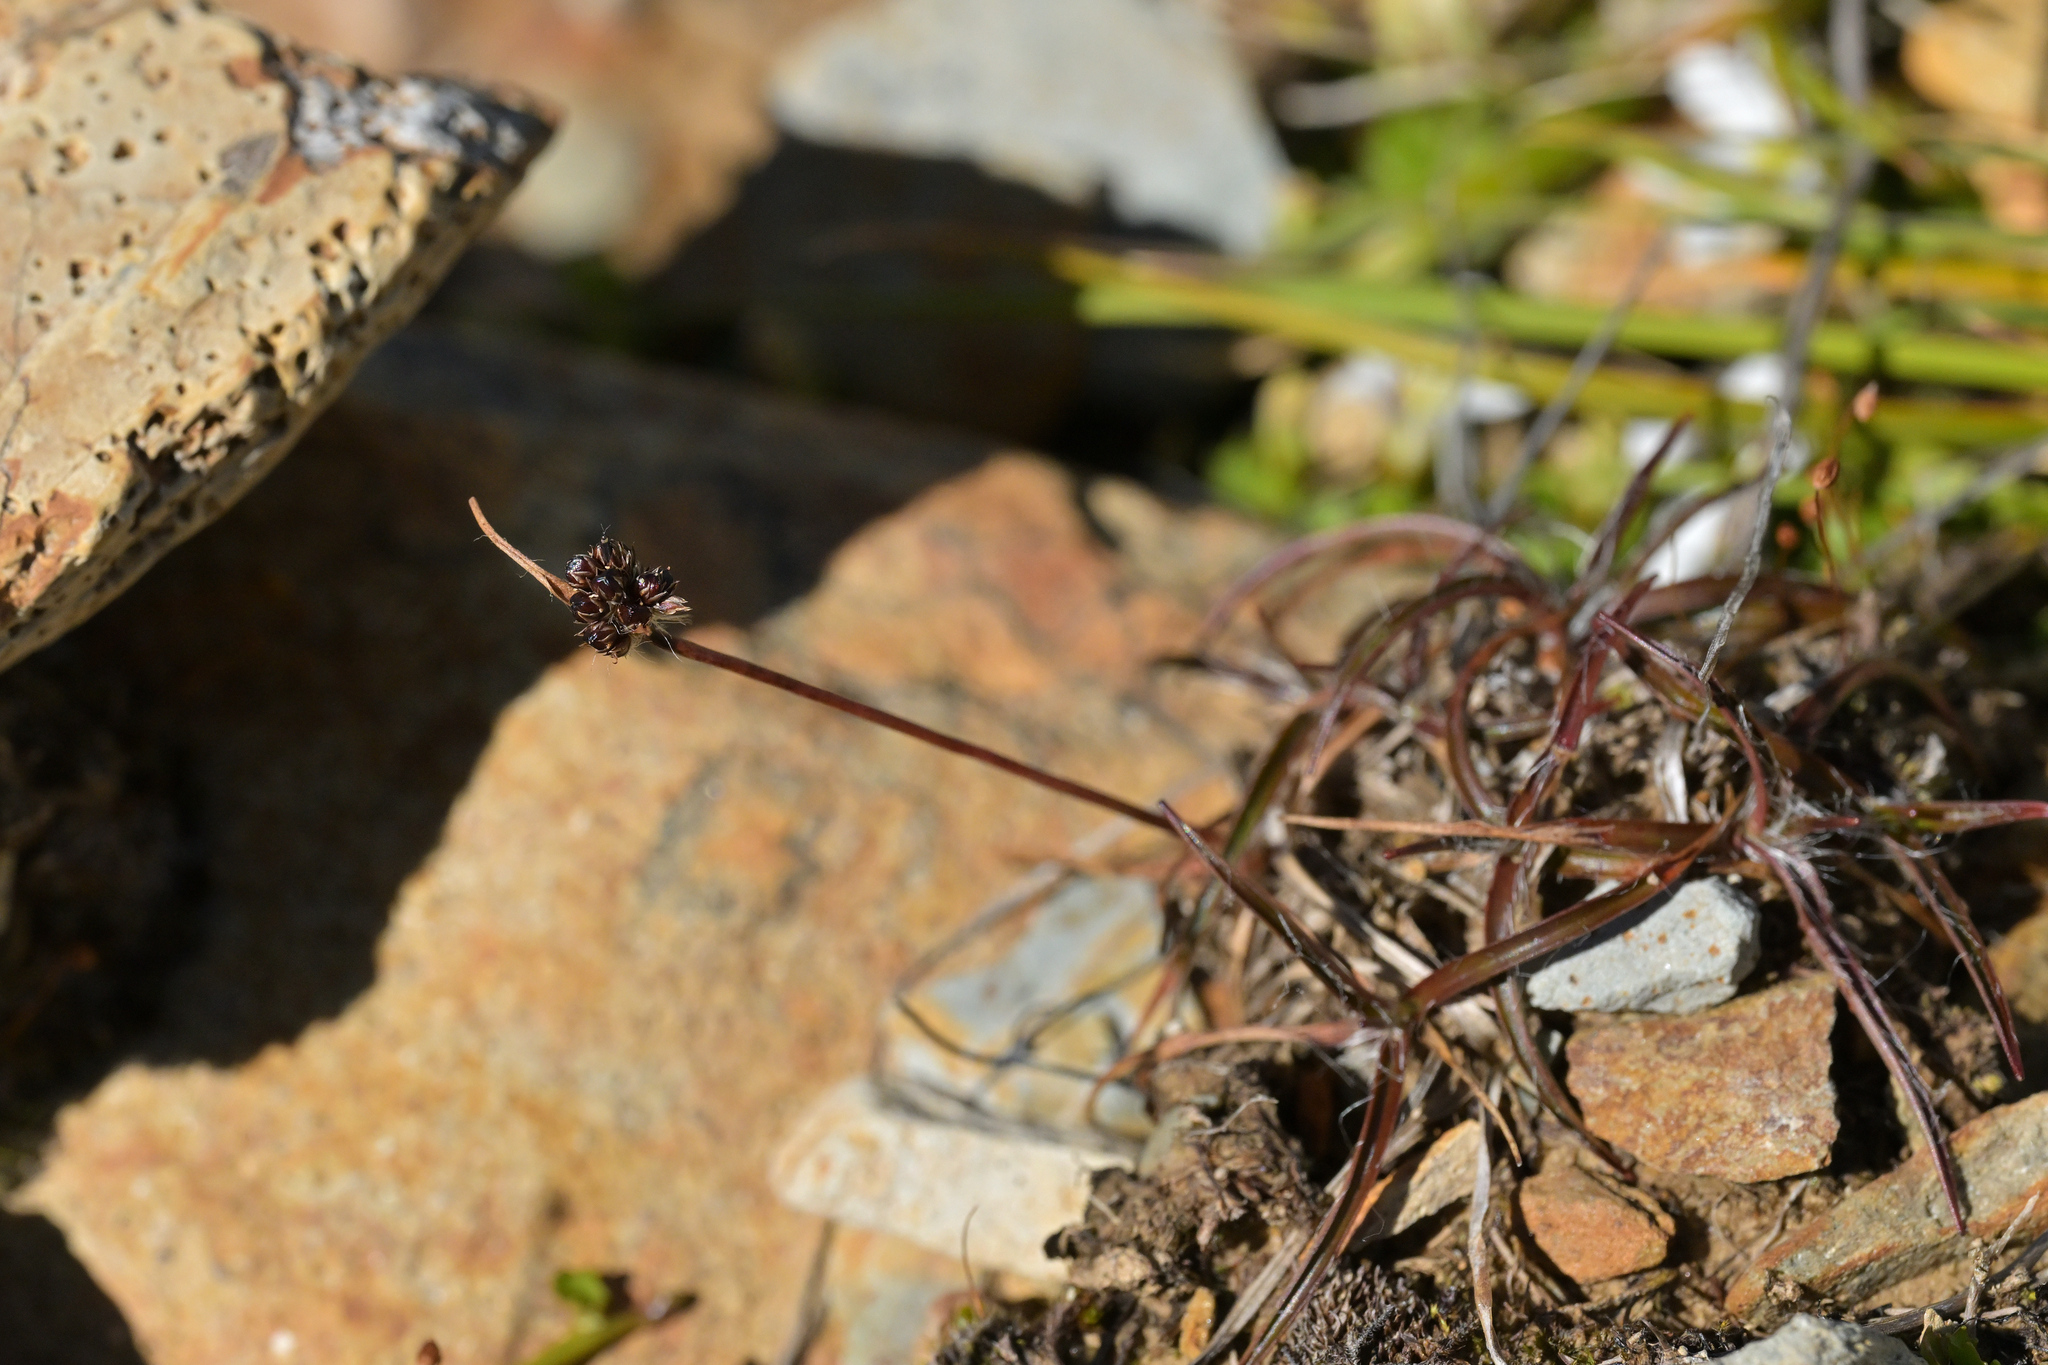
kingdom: Plantae
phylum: Tracheophyta
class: Liliopsida
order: Poales
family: Juncaceae
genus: Luzula
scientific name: Luzula rufa
